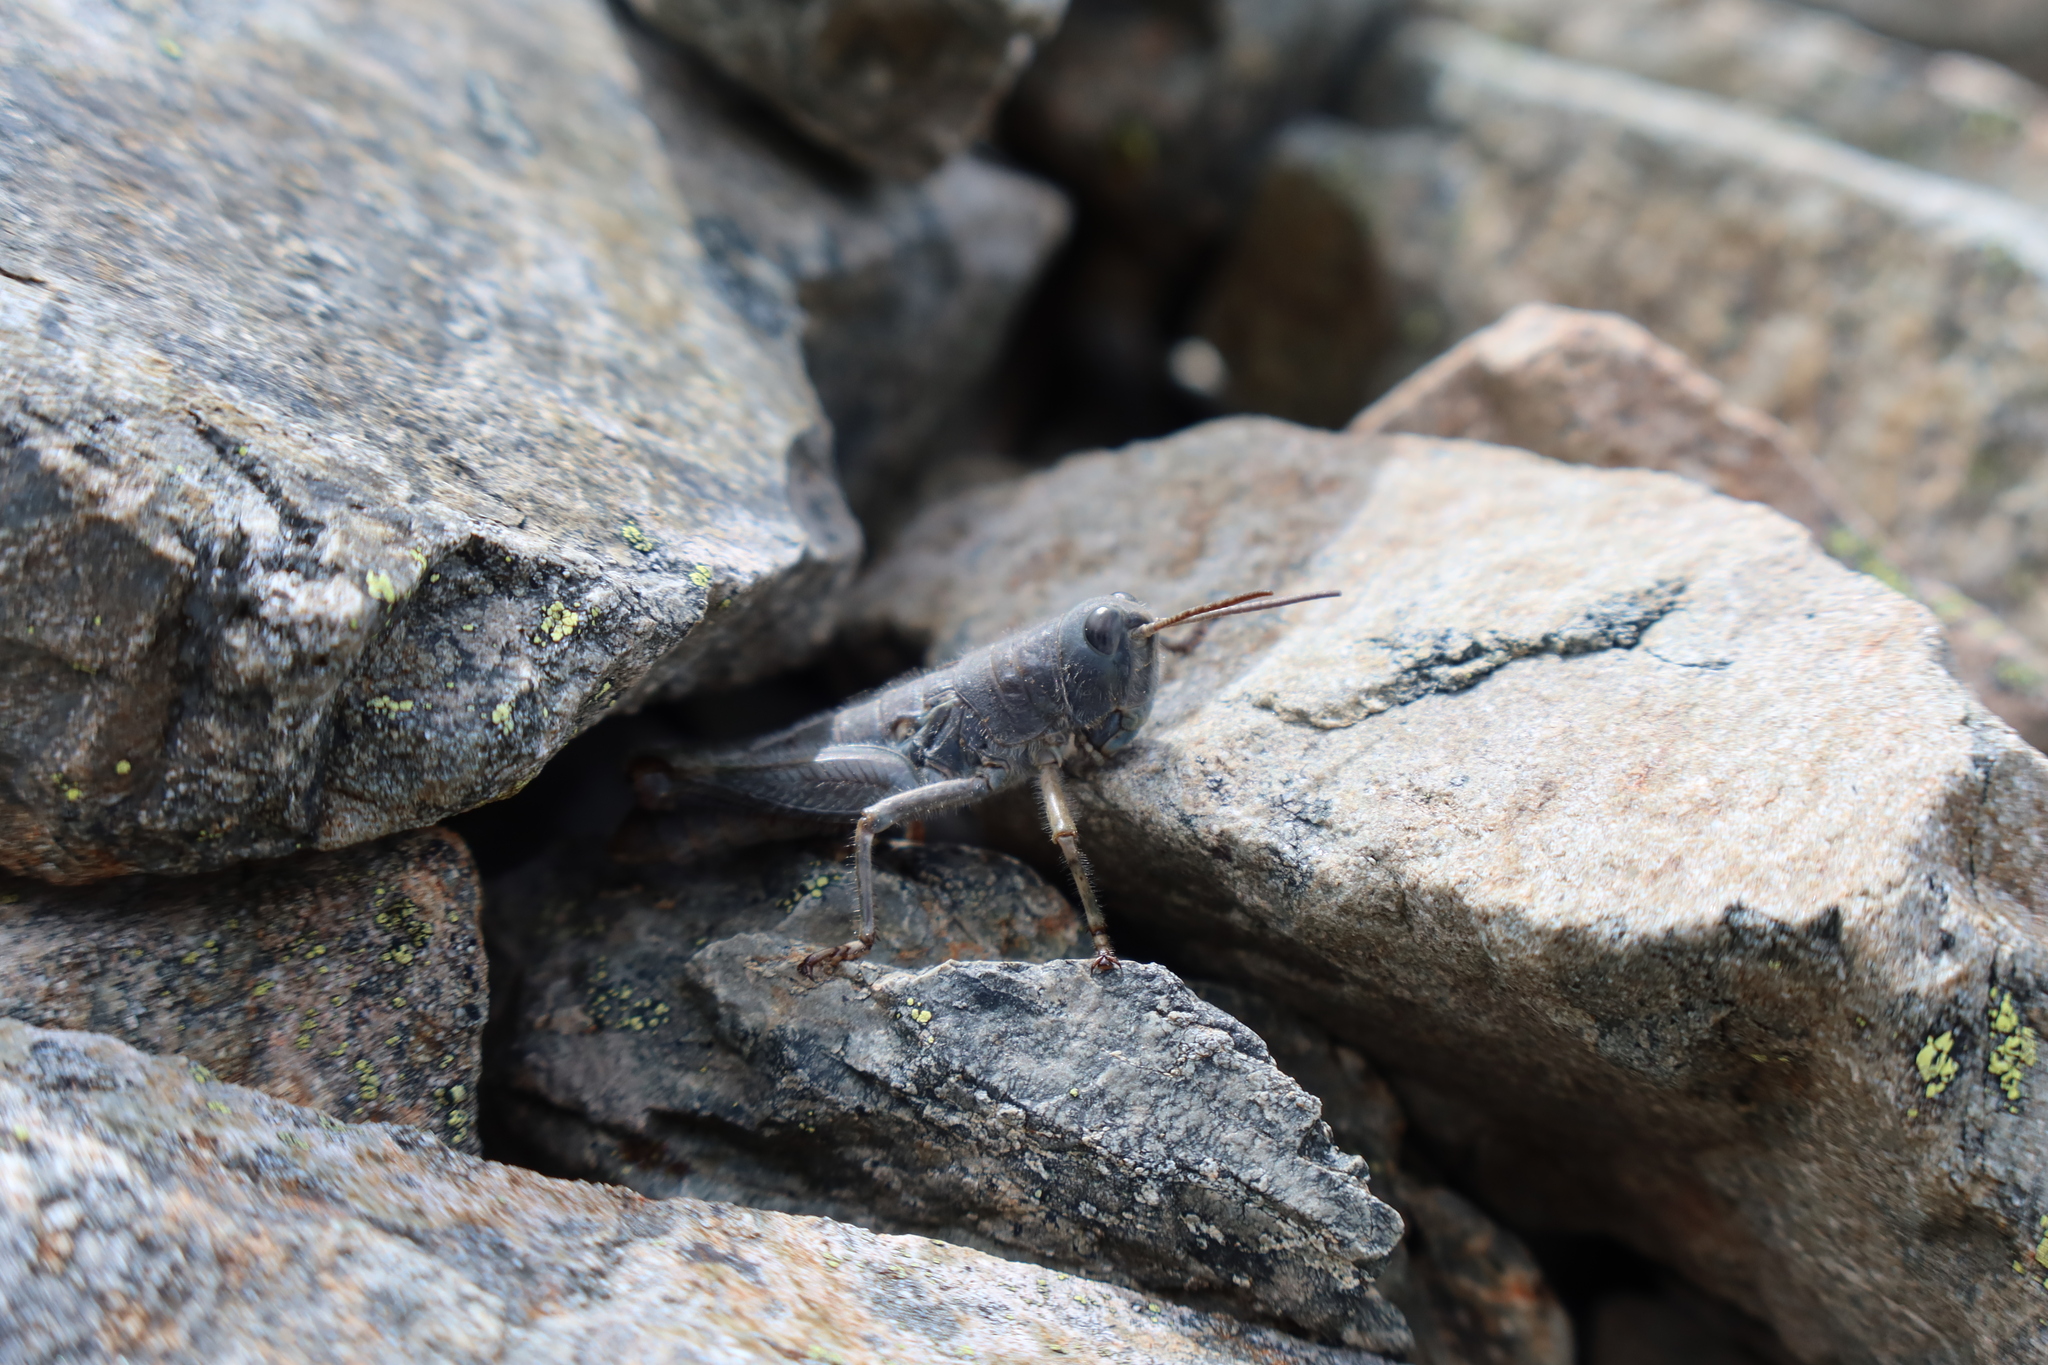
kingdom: Animalia
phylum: Arthropoda
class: Insecta
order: Orthoptera
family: Acrididae
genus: Sigaus
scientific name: Sigaus
